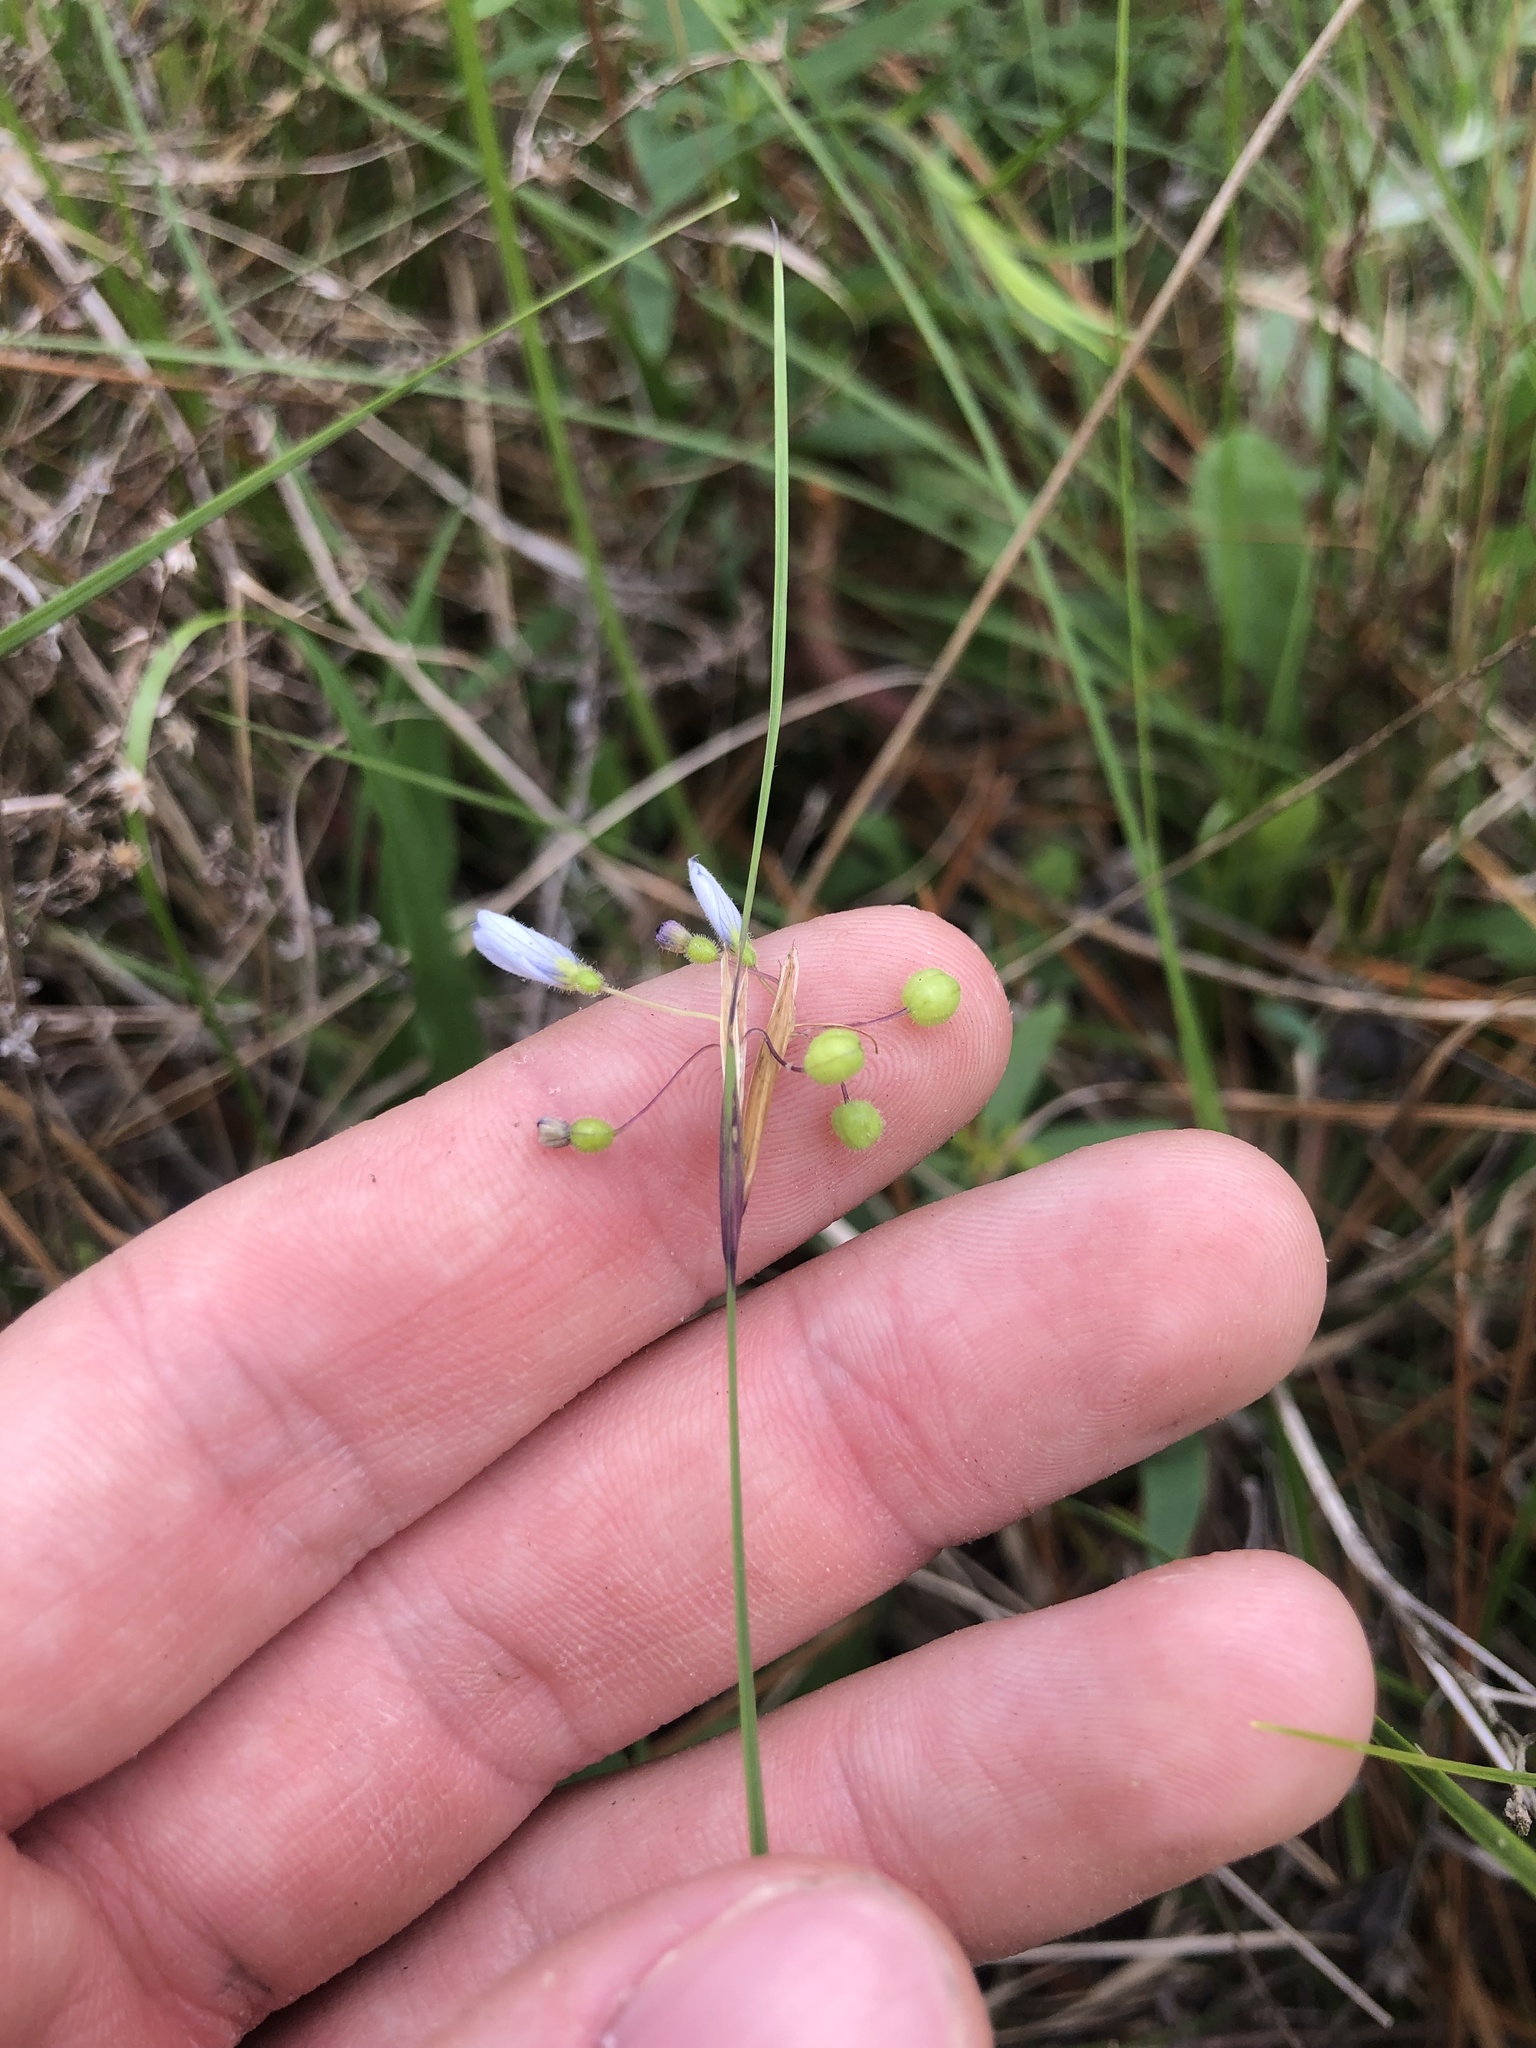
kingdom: Plantae
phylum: Tracheophyta
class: Liliopsida
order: Asparagales
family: Iridaceae
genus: Sisyrinchium
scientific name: Sisyrinchium capillare
